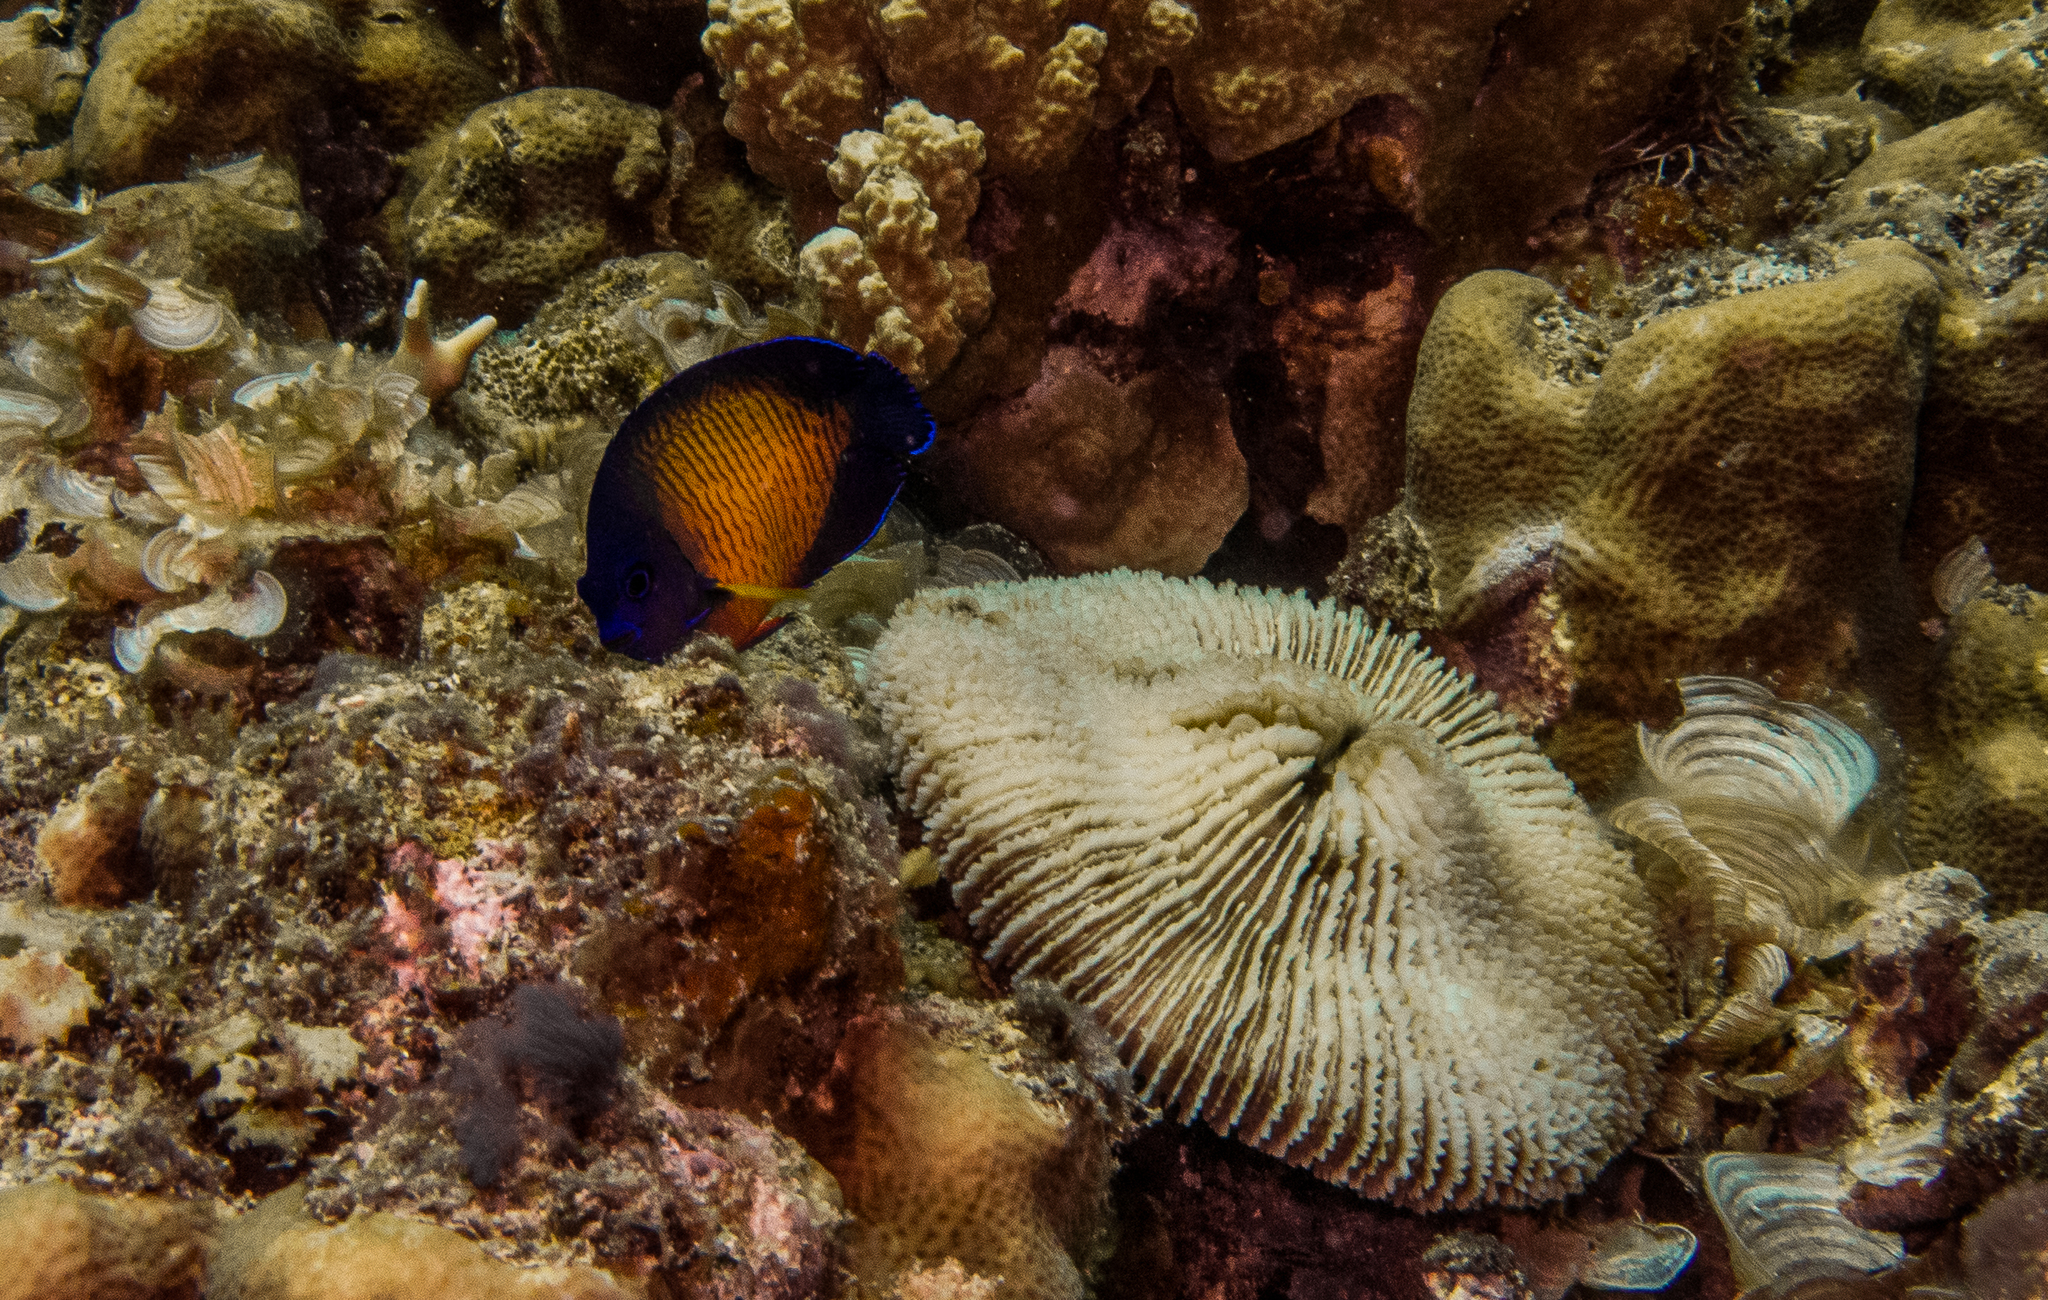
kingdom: Animalia
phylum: Chordata
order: Perciformes
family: Pomacanthidae
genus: Centropyge
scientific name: Centropyge bispinosa
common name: Coral beauty
